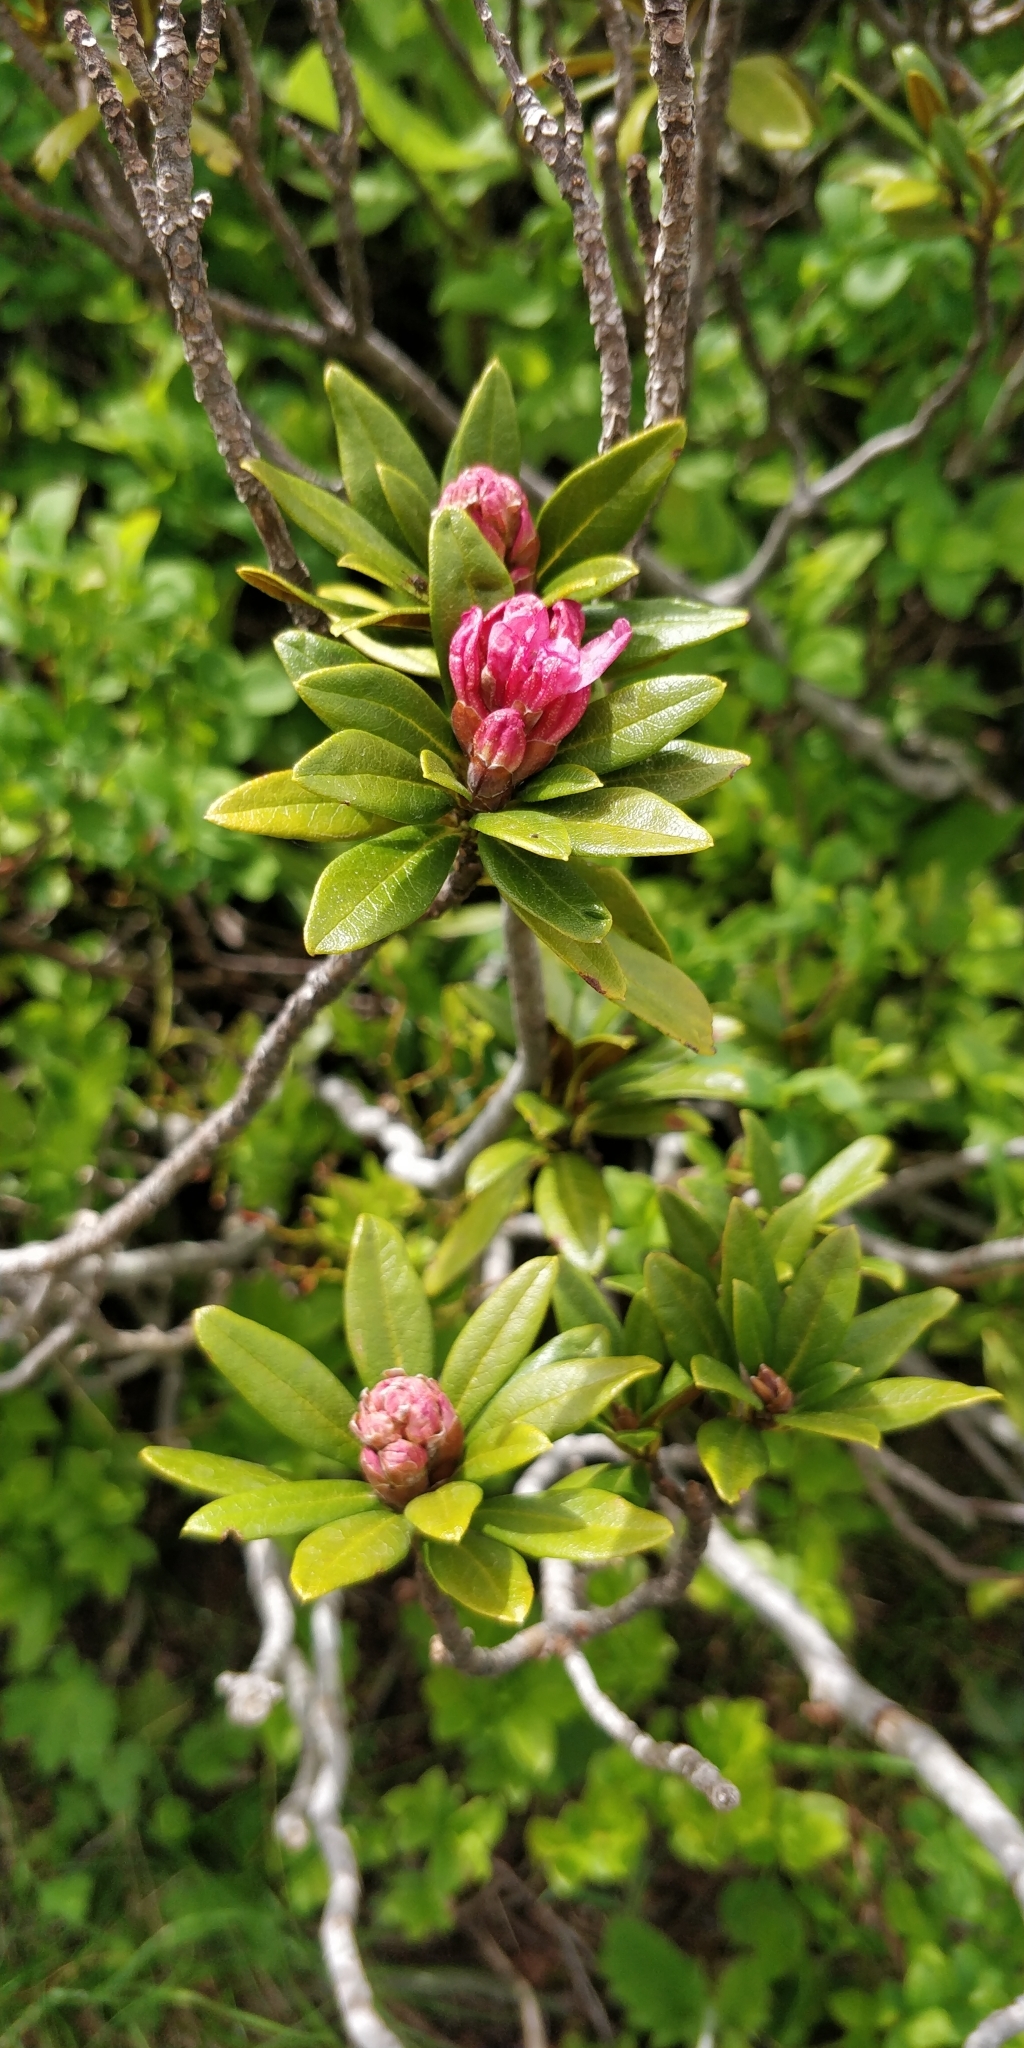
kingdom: Plantae
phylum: Tracheophyta
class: Magnoliopsida
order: Ericales
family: Ericaceae
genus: Rhododendron
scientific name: Rhododendron ferrugineum
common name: Alpenrose
